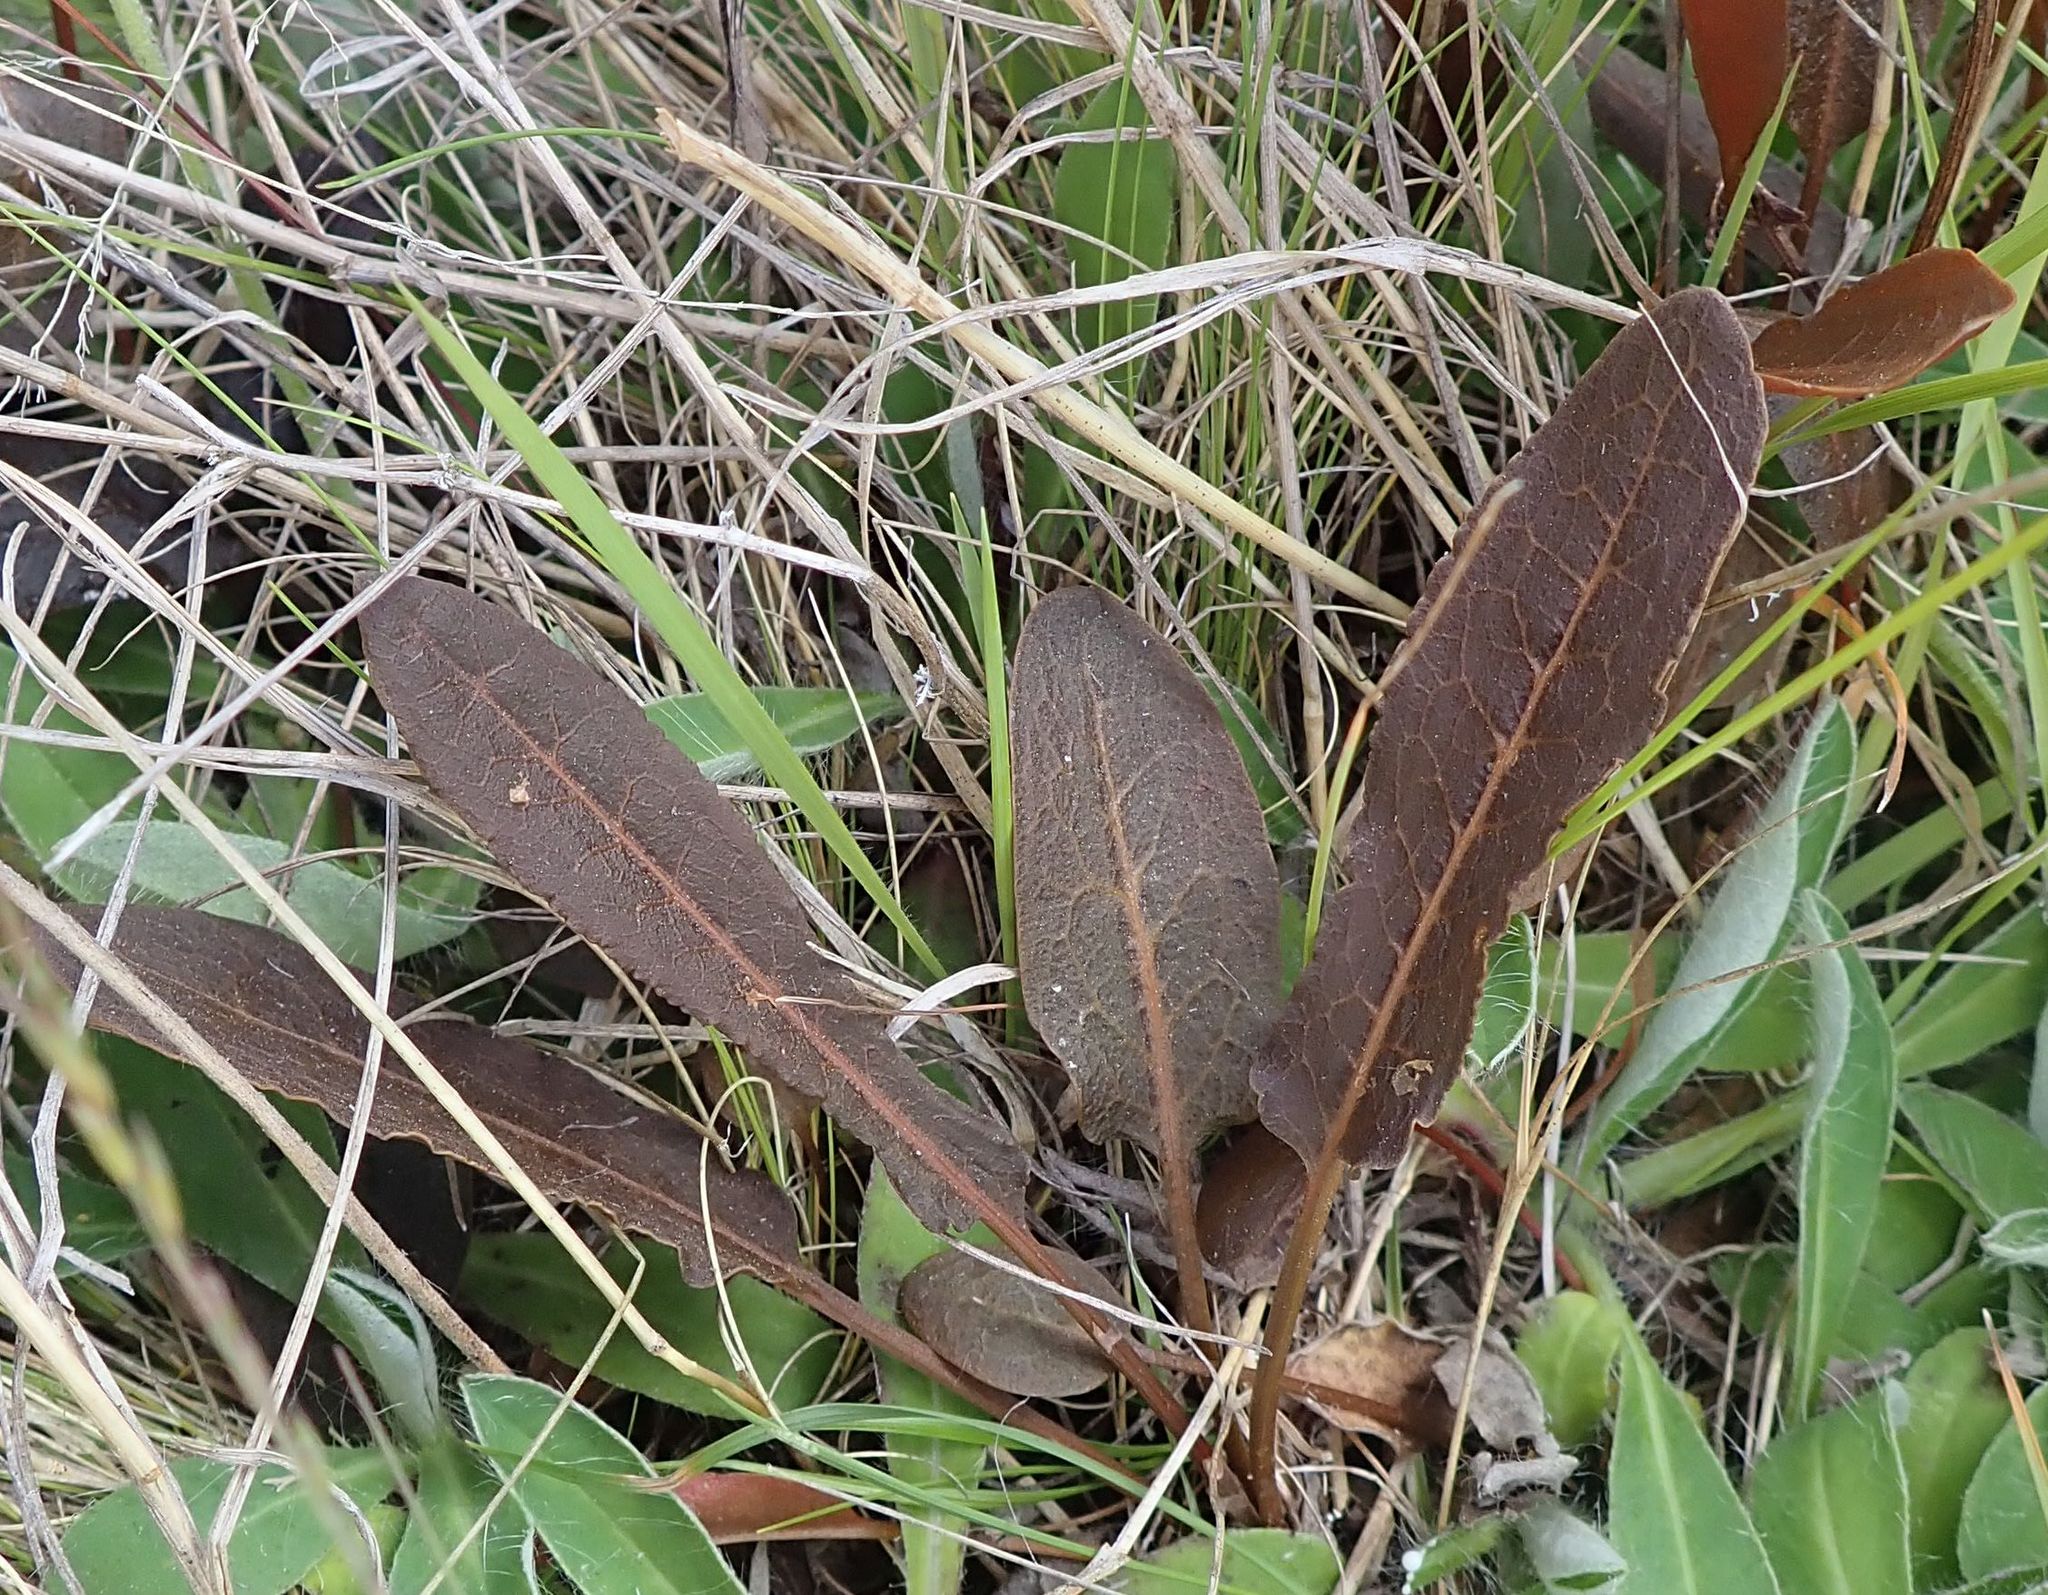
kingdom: Plantae
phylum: Tracheophyta
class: Magnoliopsida
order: Caryophyllales
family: Polygonaceae
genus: Rumex
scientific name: Rumex flexuosus
